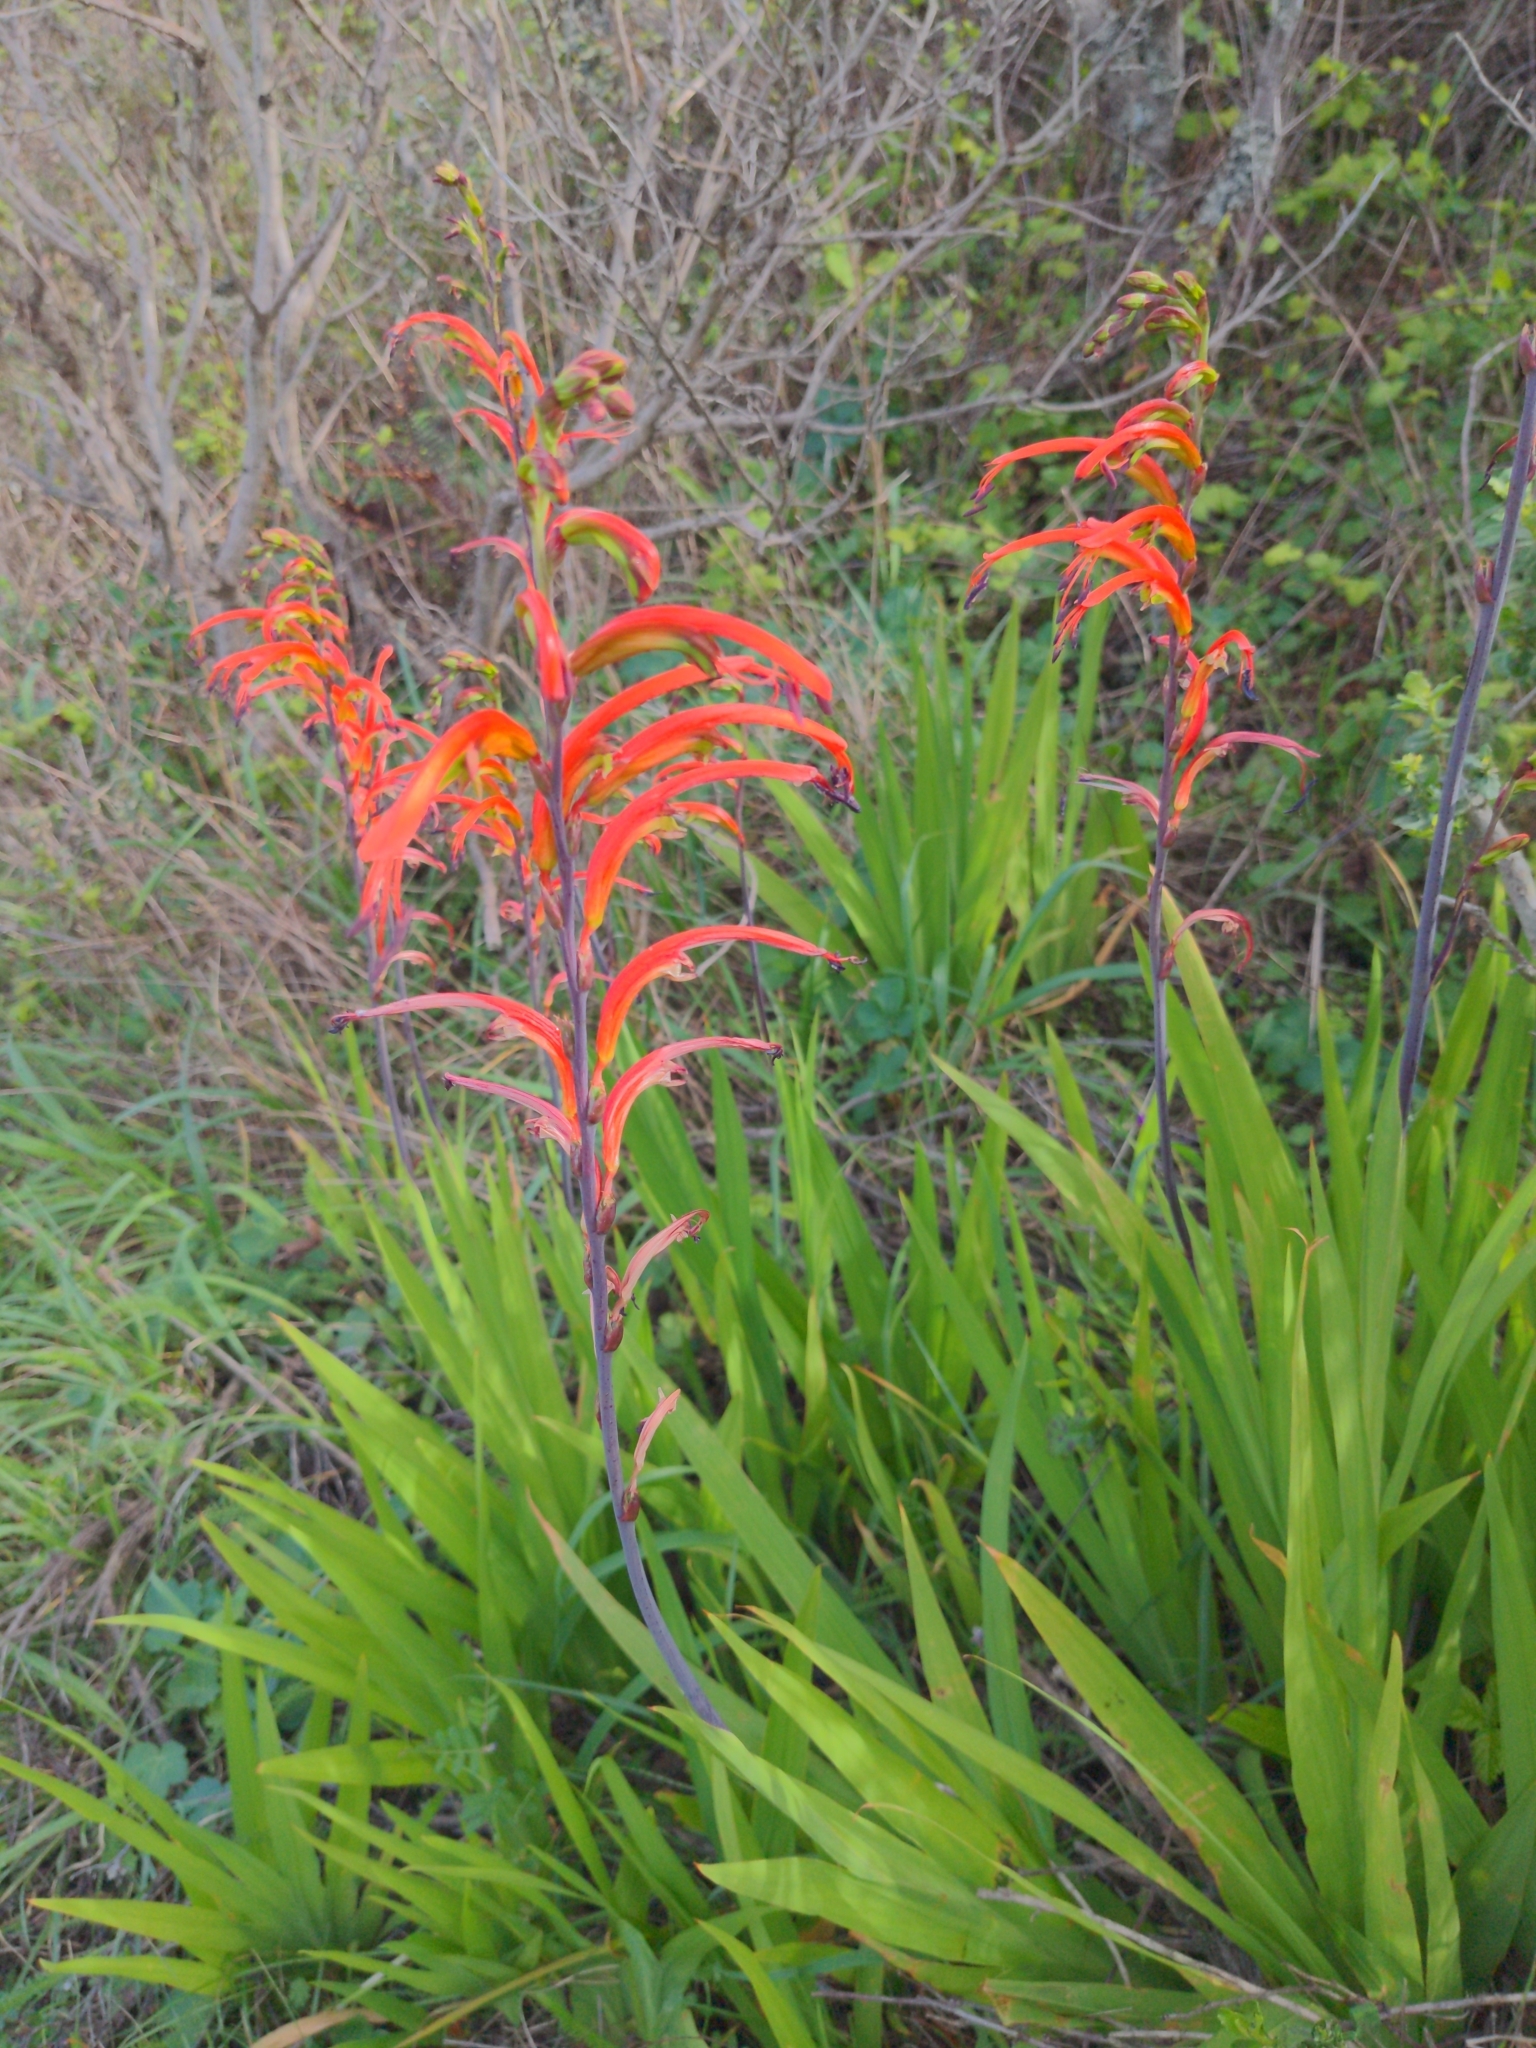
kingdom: Plantae
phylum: Tracheophyta
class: Liliopsida
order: Asparagales
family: Iridaceae
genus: Chasmanthe
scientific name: Chasmanthe bicolor
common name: Bicolor cobra lily
